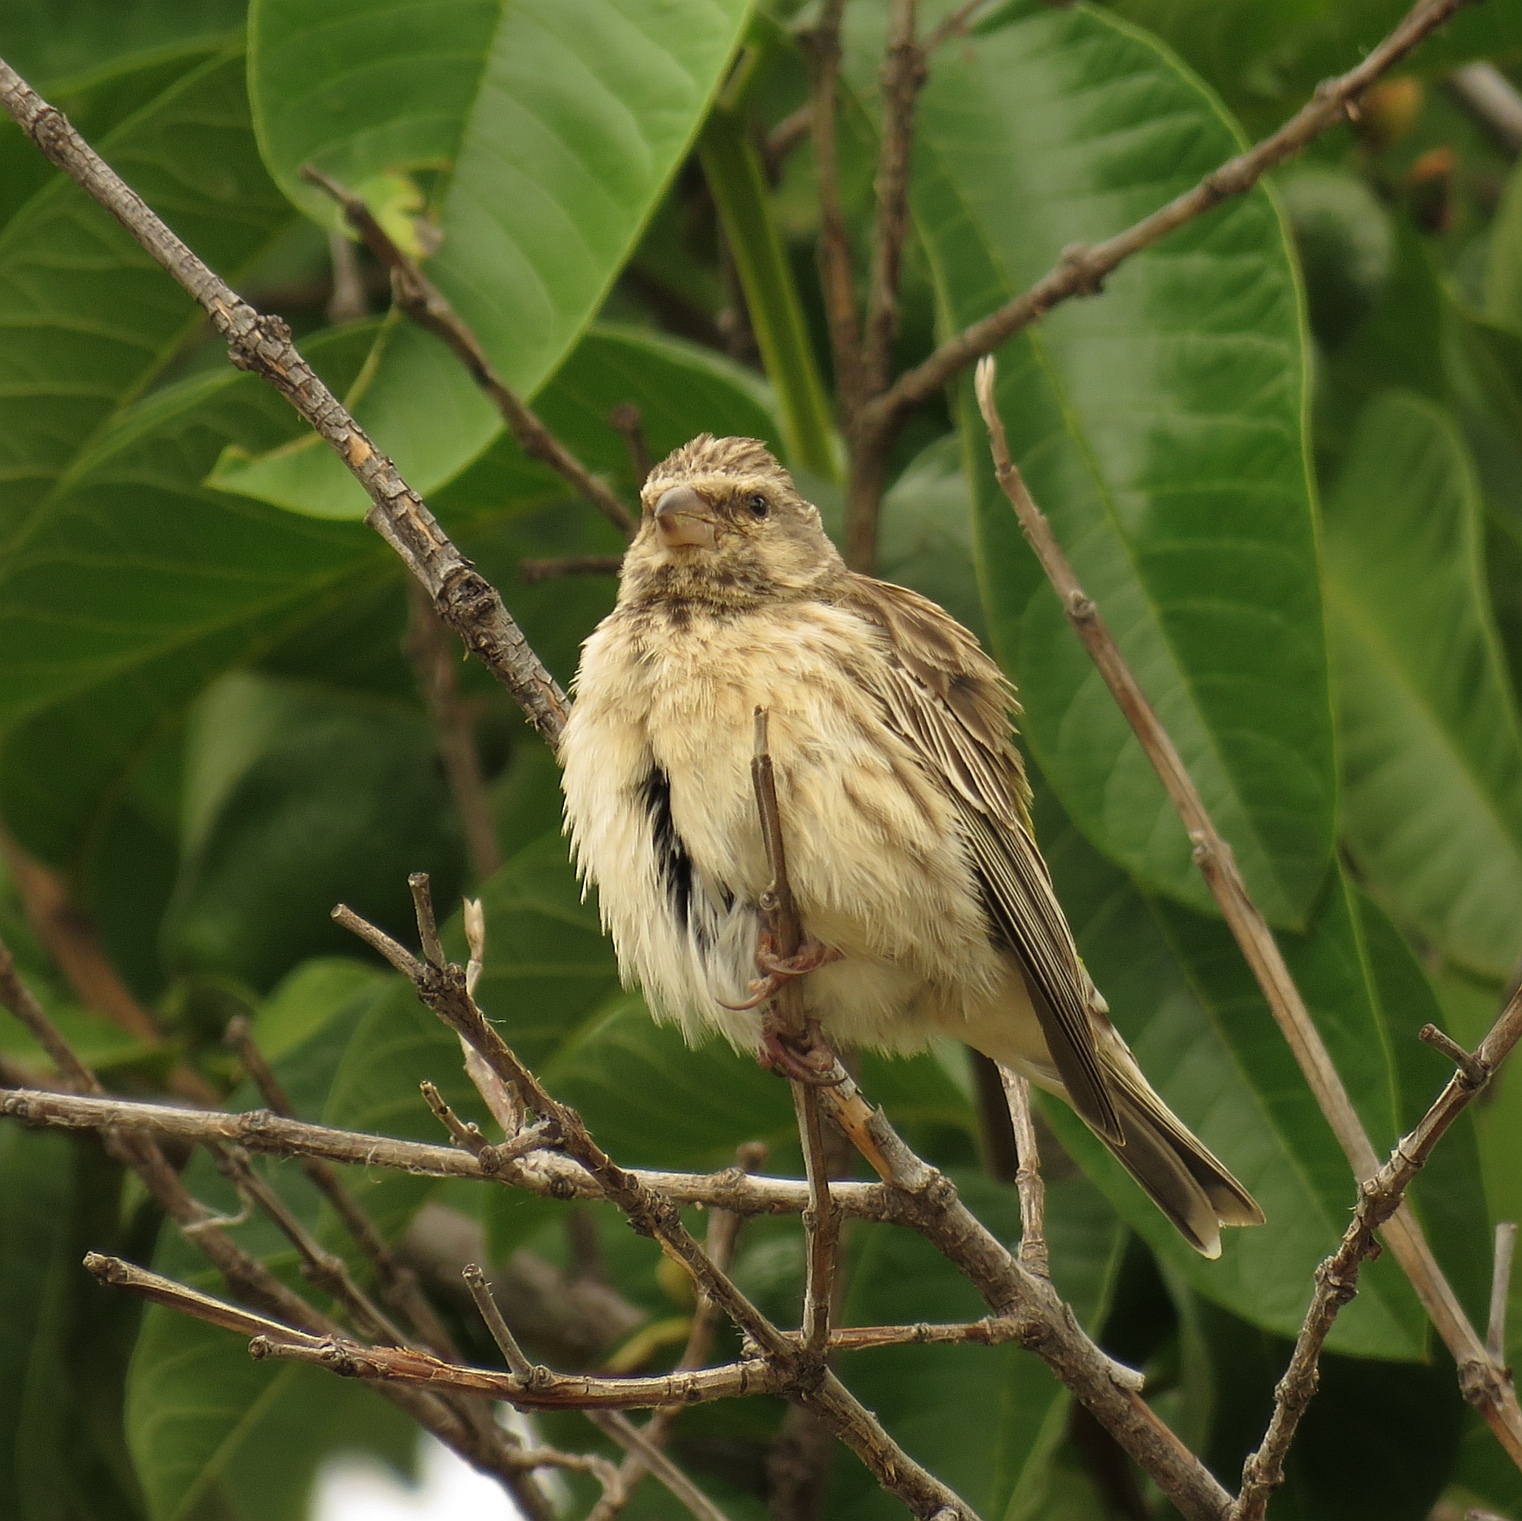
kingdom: Animalia
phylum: Chordata
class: Aves
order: Passeriformes
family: Fringillidae
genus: Crithagra
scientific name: Crithagra atrogularis
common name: Black-throated canary
